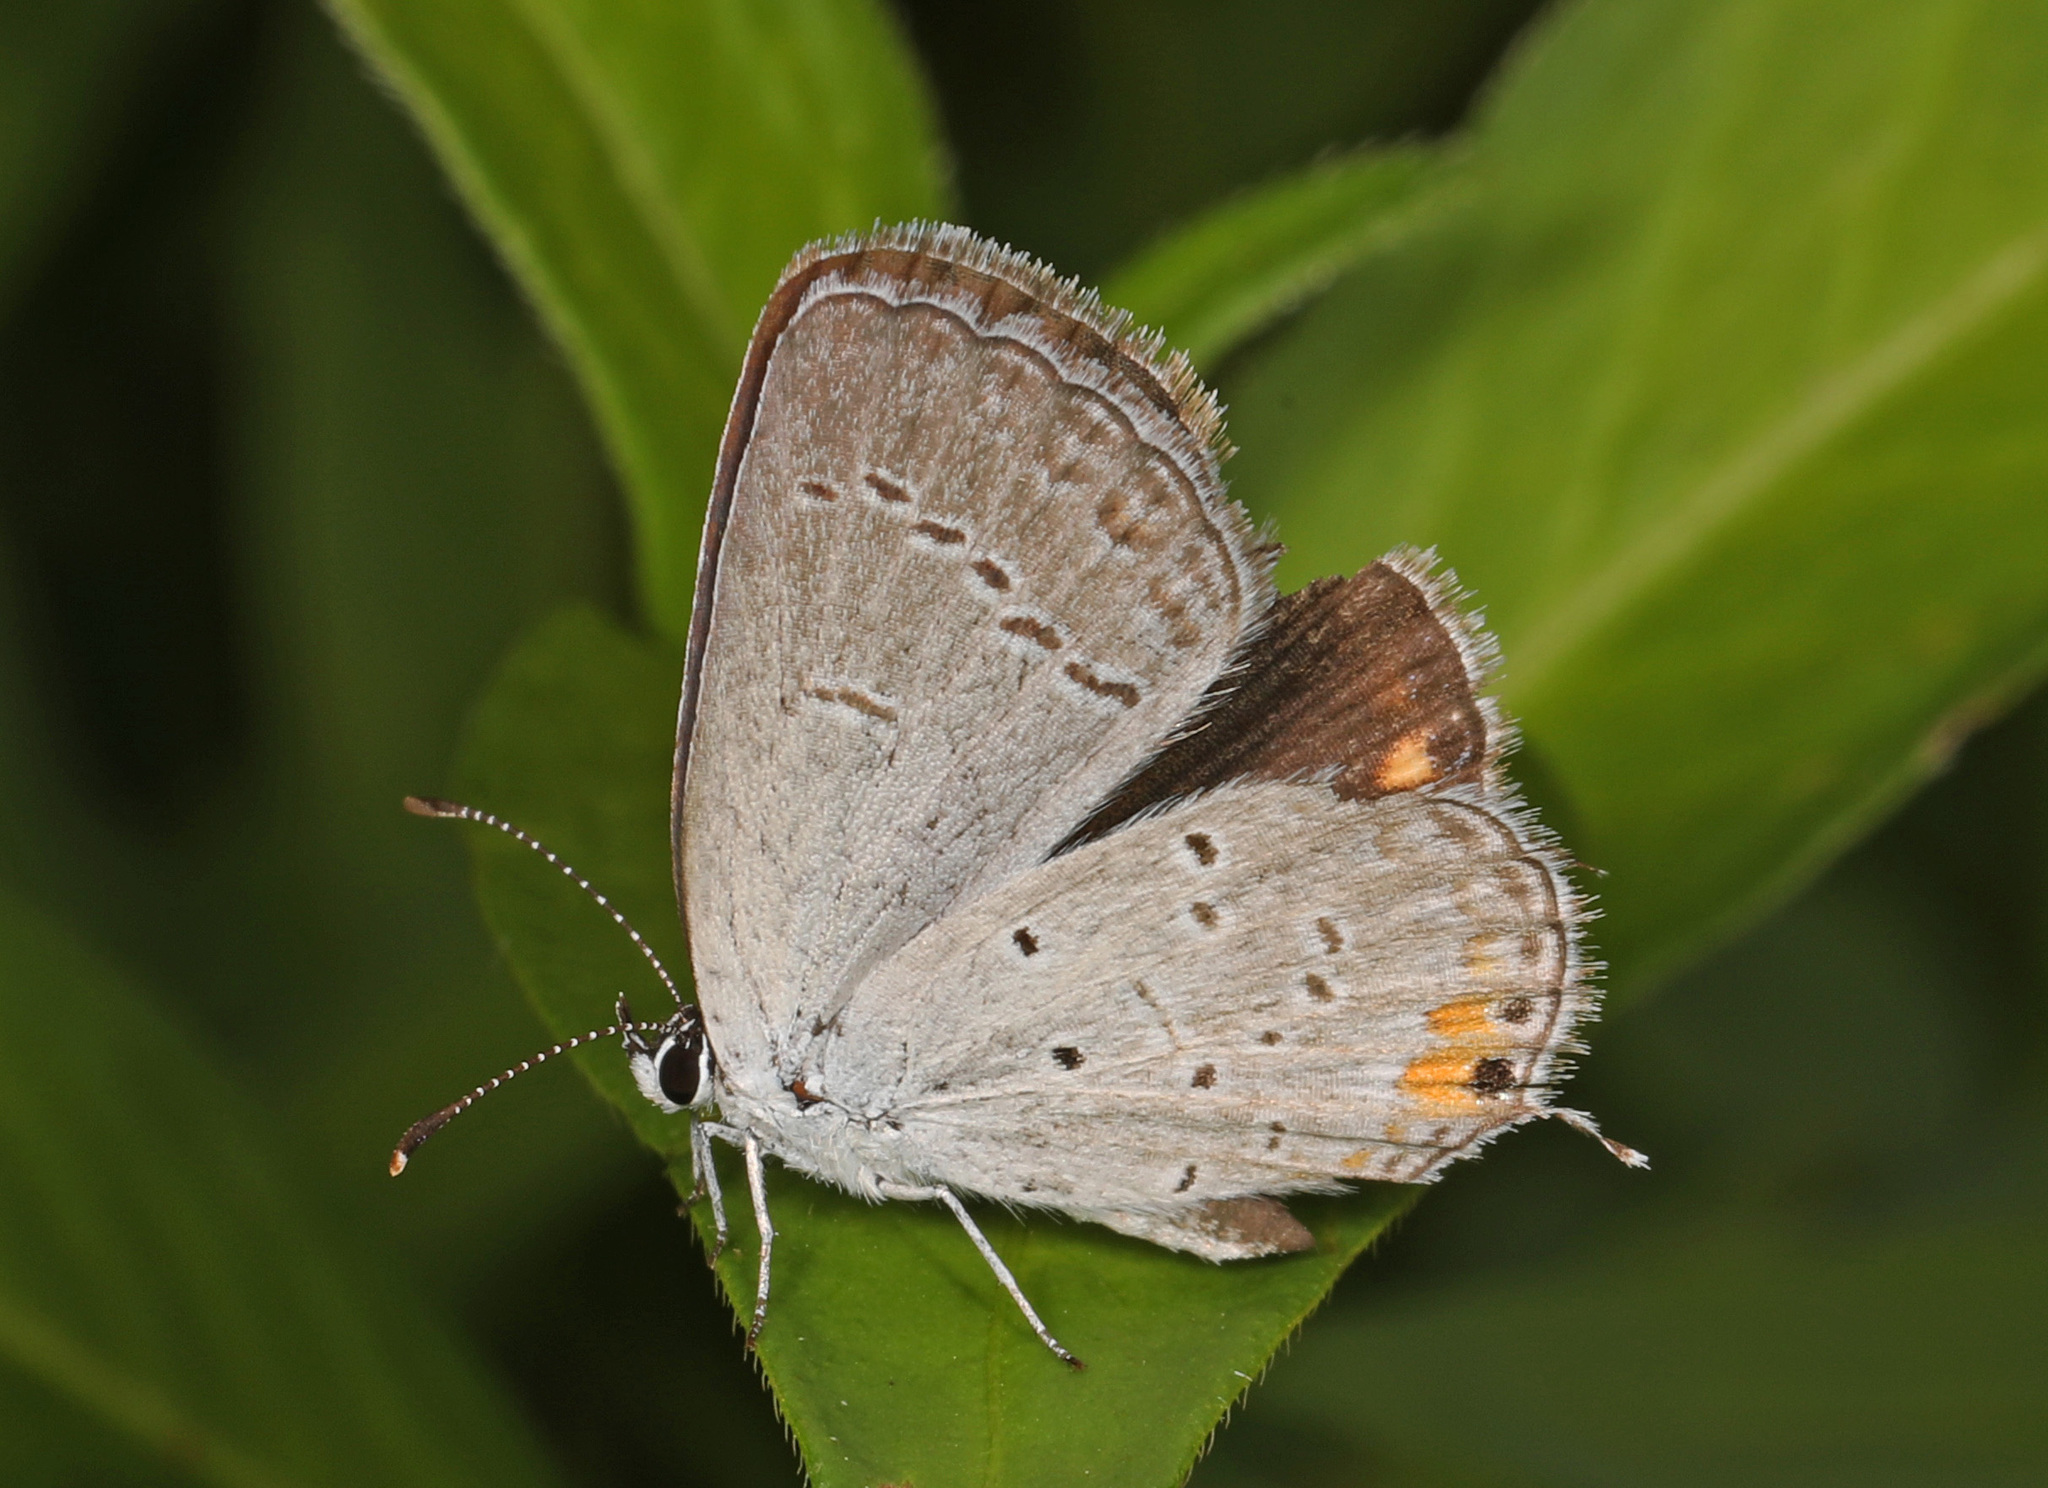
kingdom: Animalia
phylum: Arthropoda
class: Insecta
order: Lepidoptera
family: Lycaenidae
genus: Elkalyce
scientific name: Elkalyce comyntas
